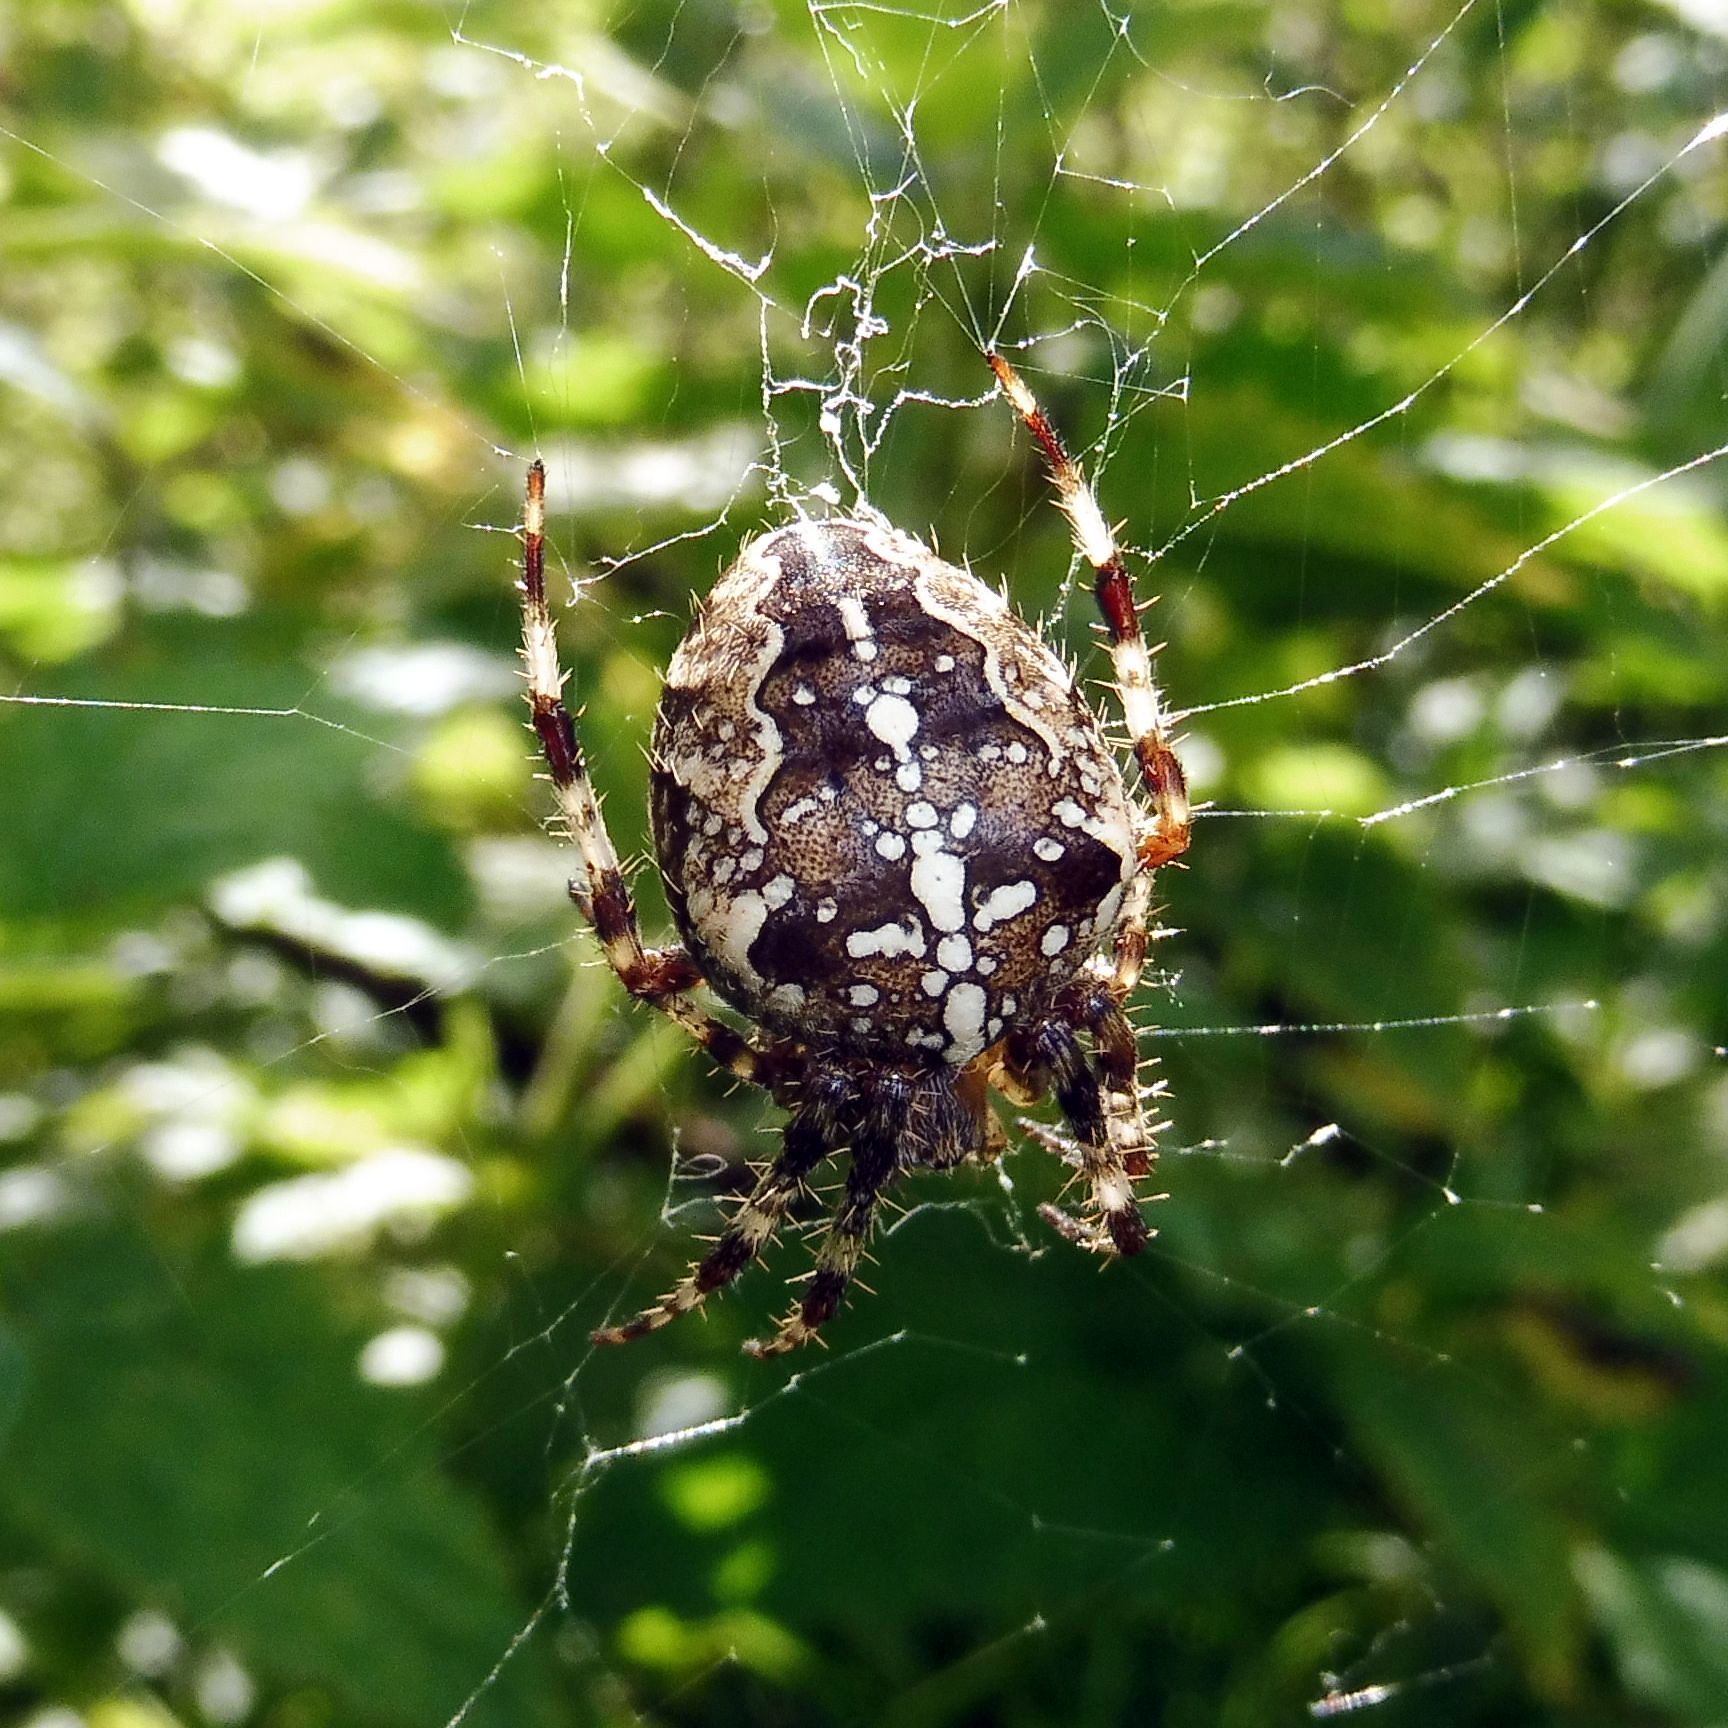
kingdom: Animalia
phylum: Arthropoda
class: Arachnida
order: Araneae
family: Araneidae
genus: Araneus
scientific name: Araneus diadematus
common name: Cross orbweaver
